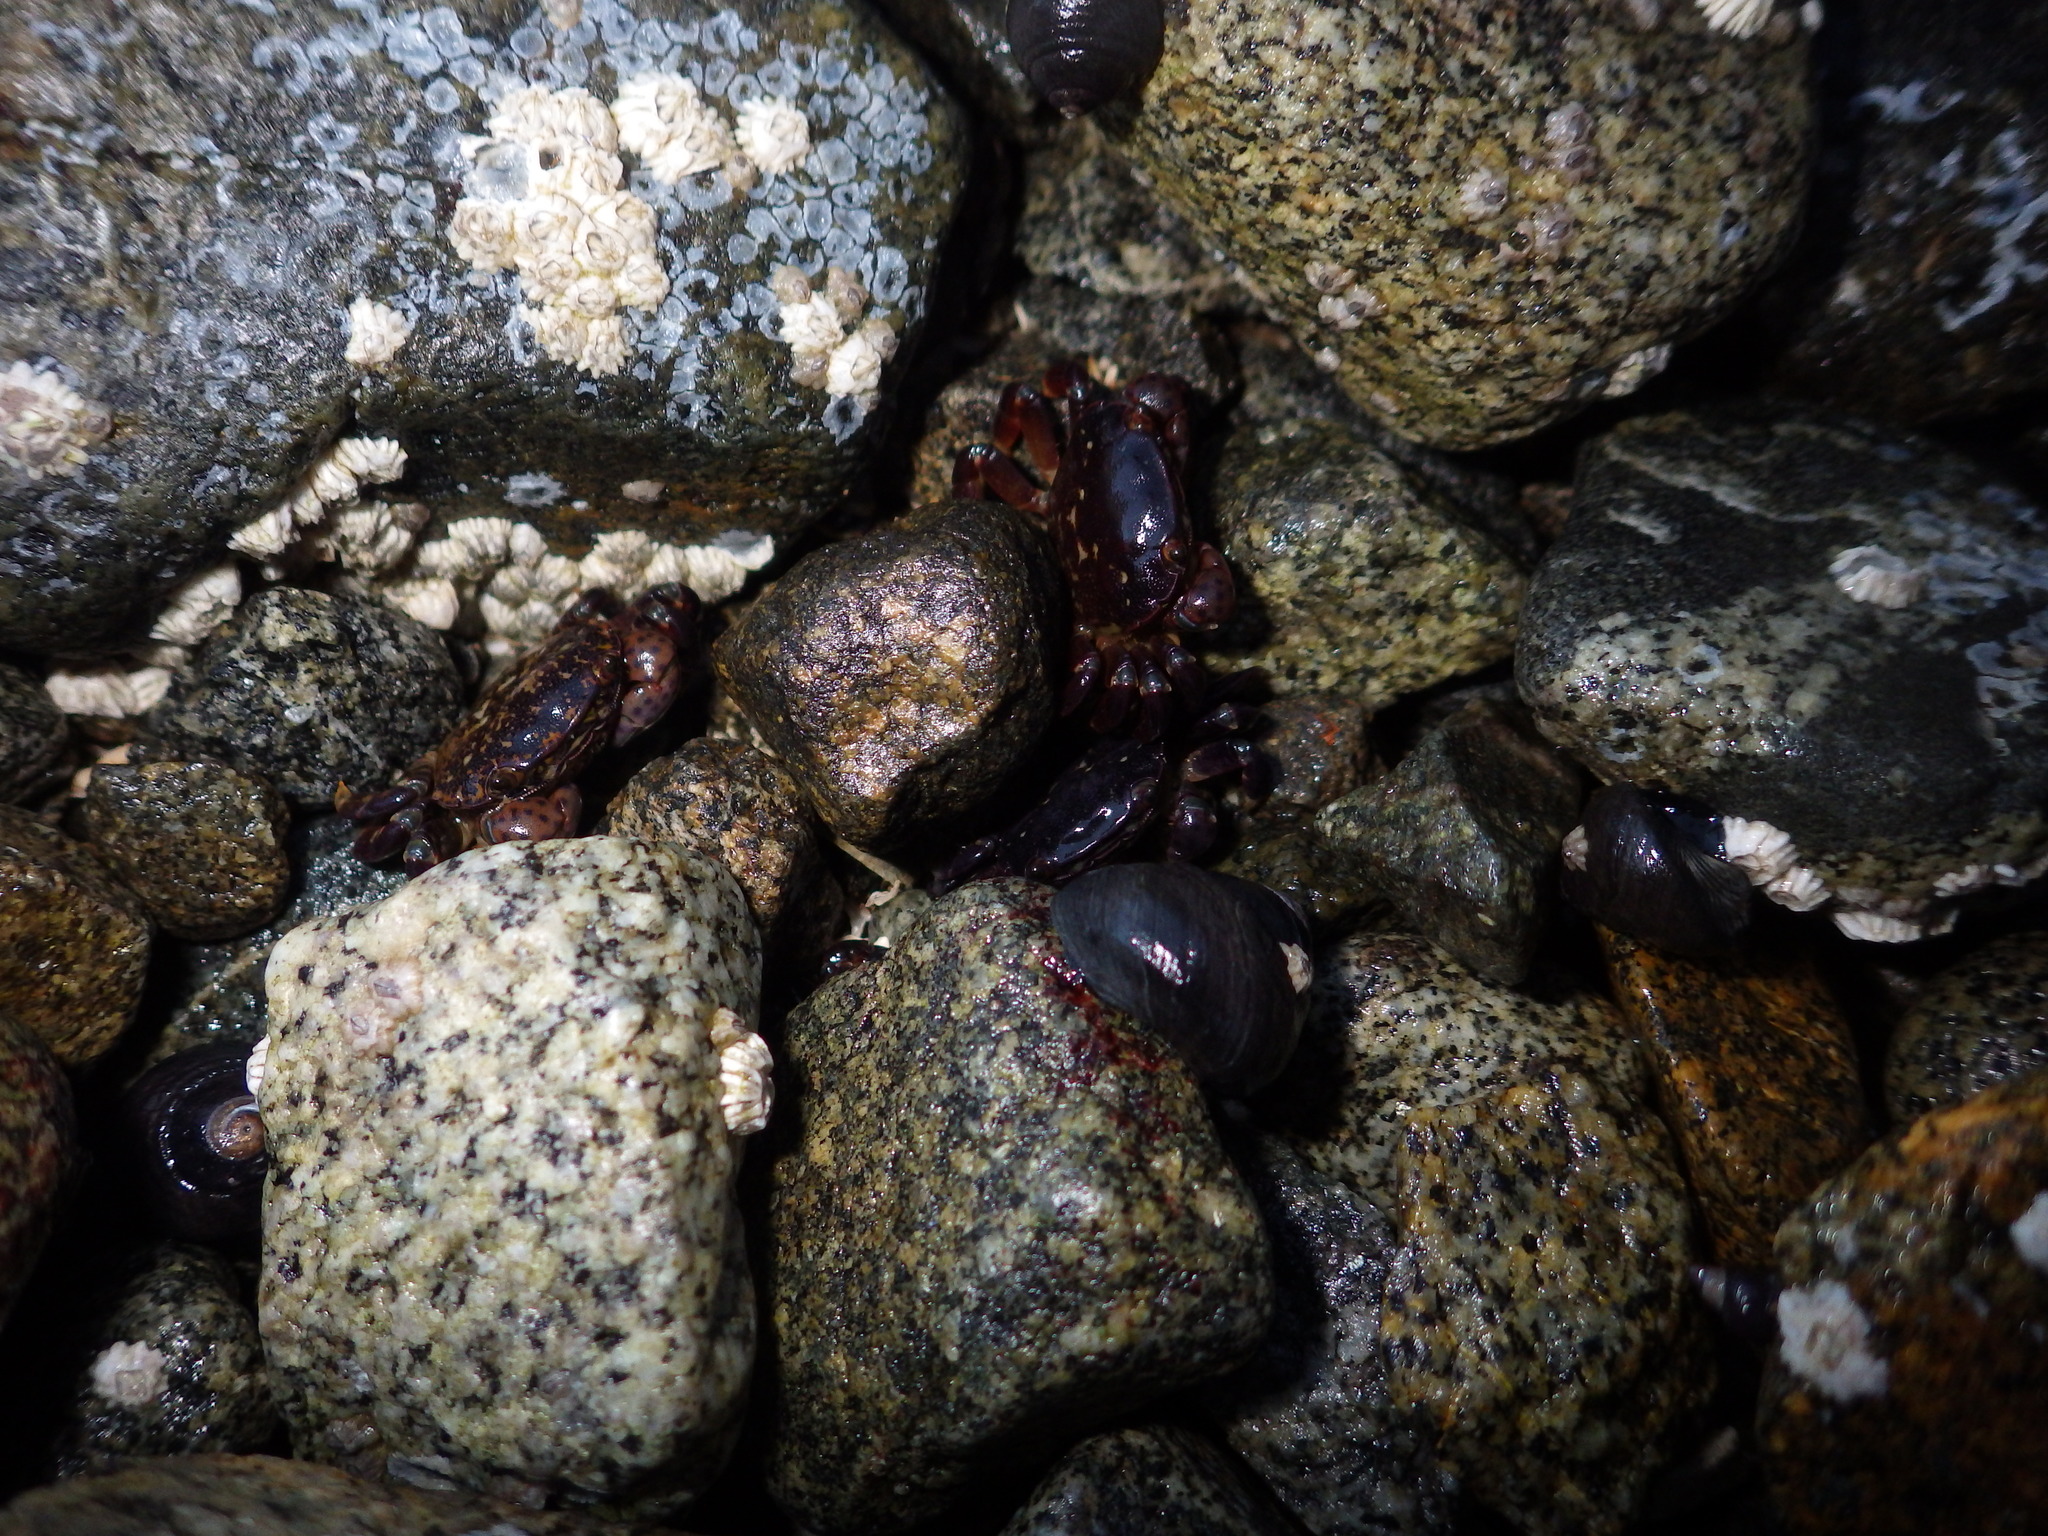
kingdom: Animalia
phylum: Arthropoda
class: Malacostraca
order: Decapoda
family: Varunidae
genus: Hemigrapsus
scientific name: Hemigrapsus nudus
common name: Purple shore crab
